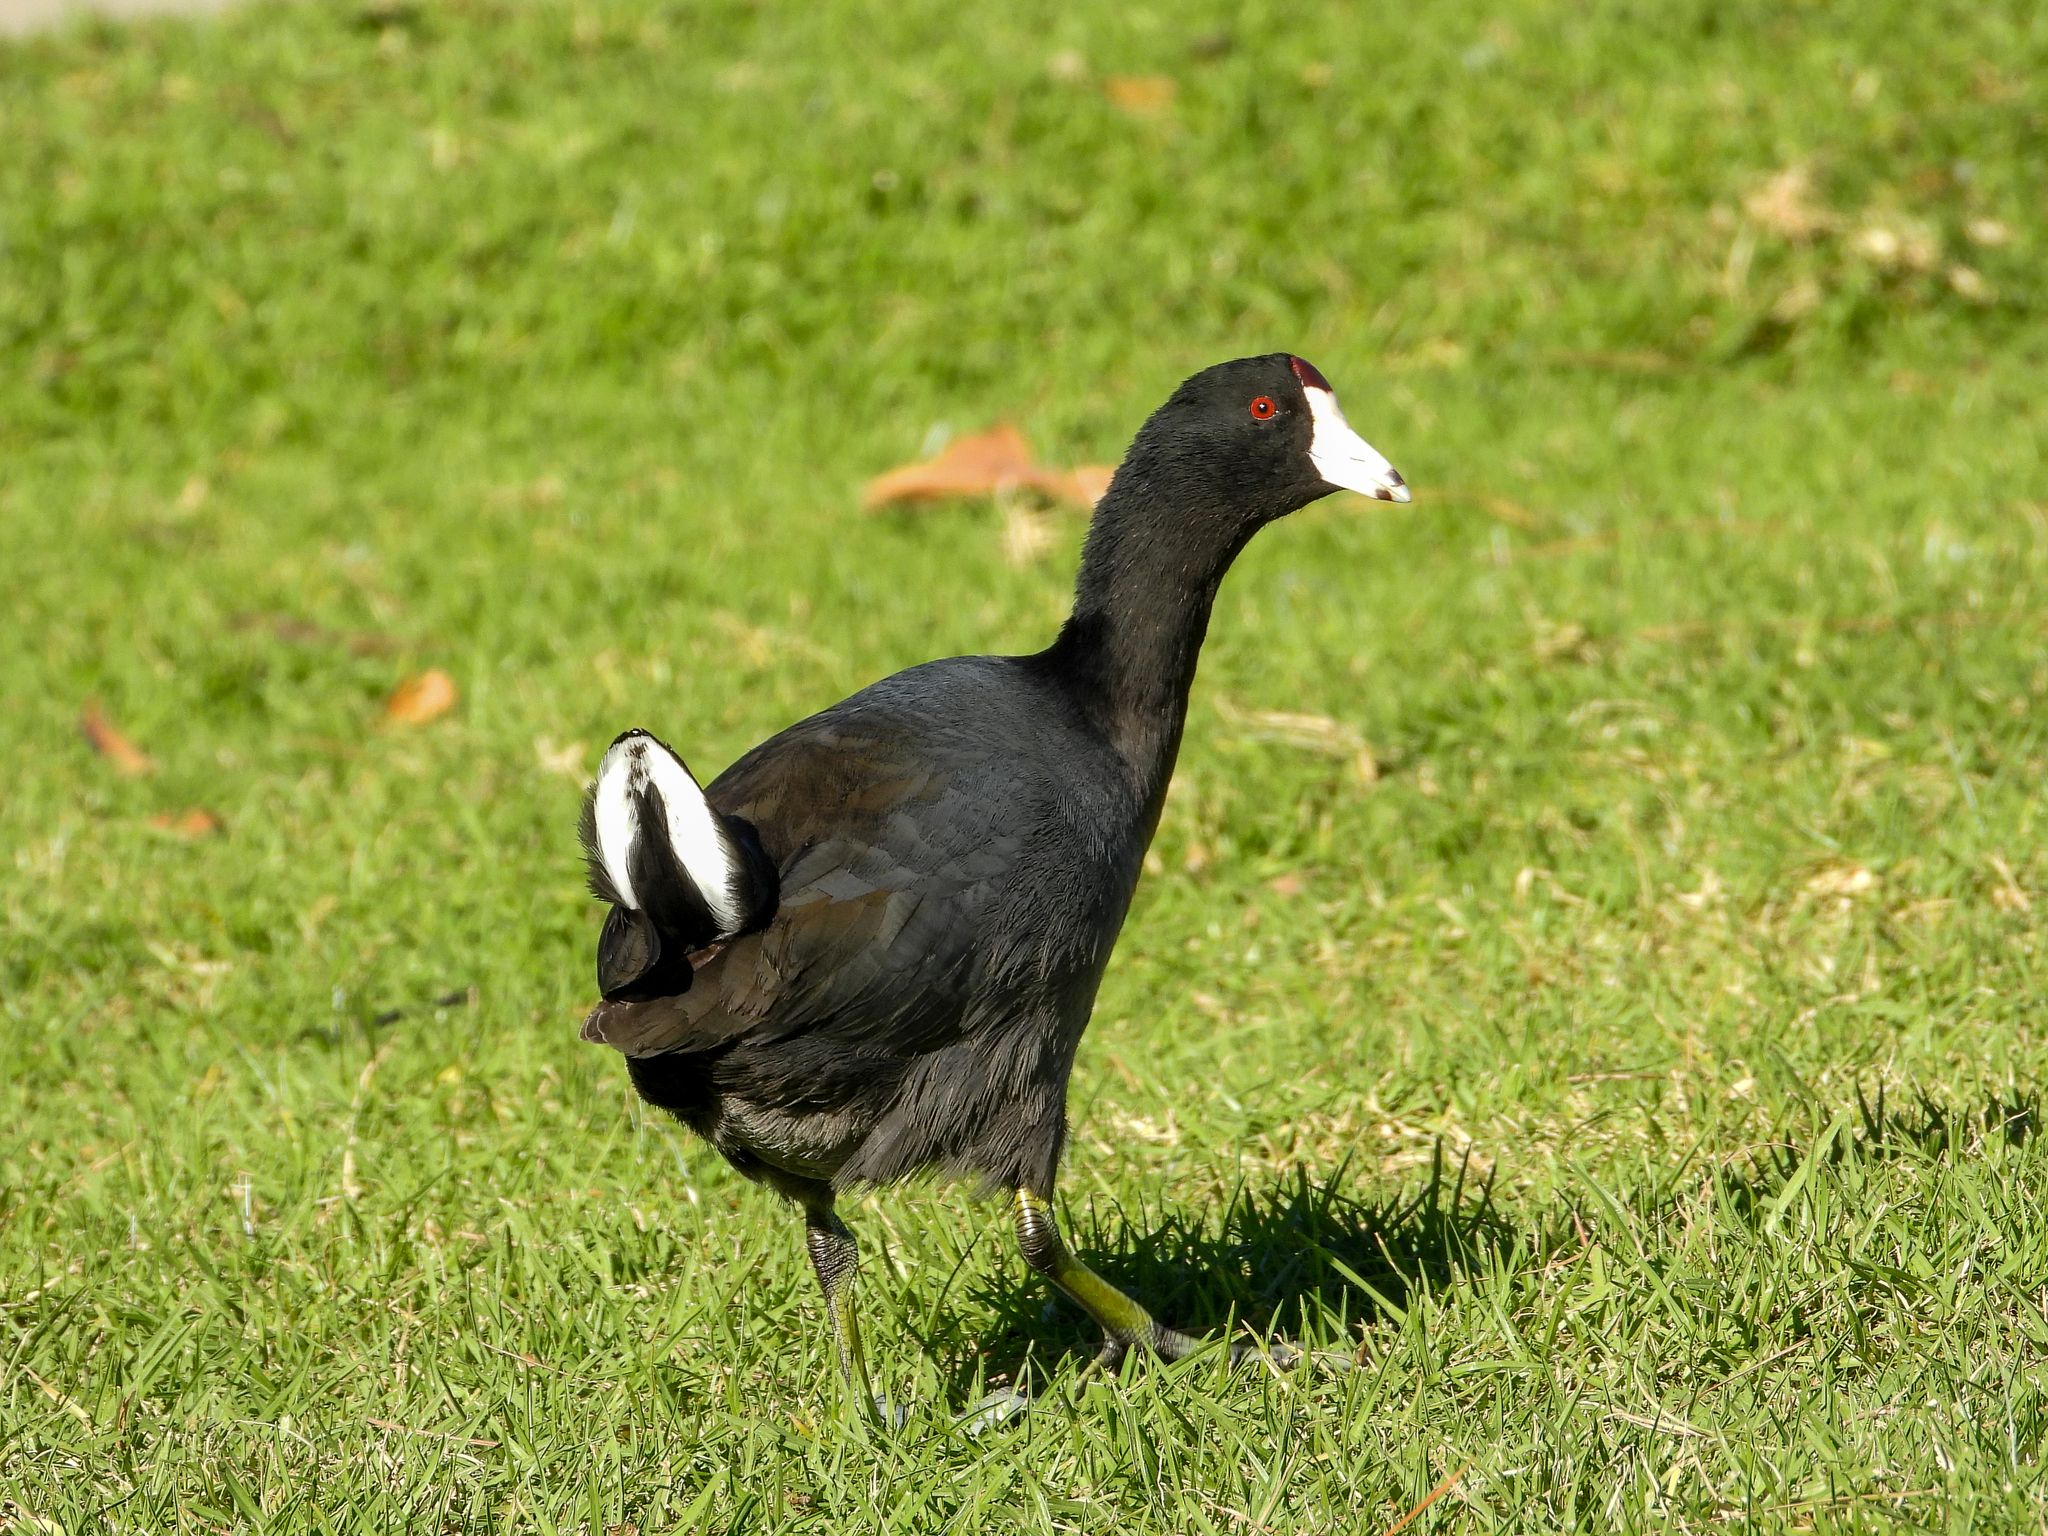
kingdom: Animalia
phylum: Chordata
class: Aves
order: Gruiformes
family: Rallidae
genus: Fulica
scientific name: Fulica americana
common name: American coot
